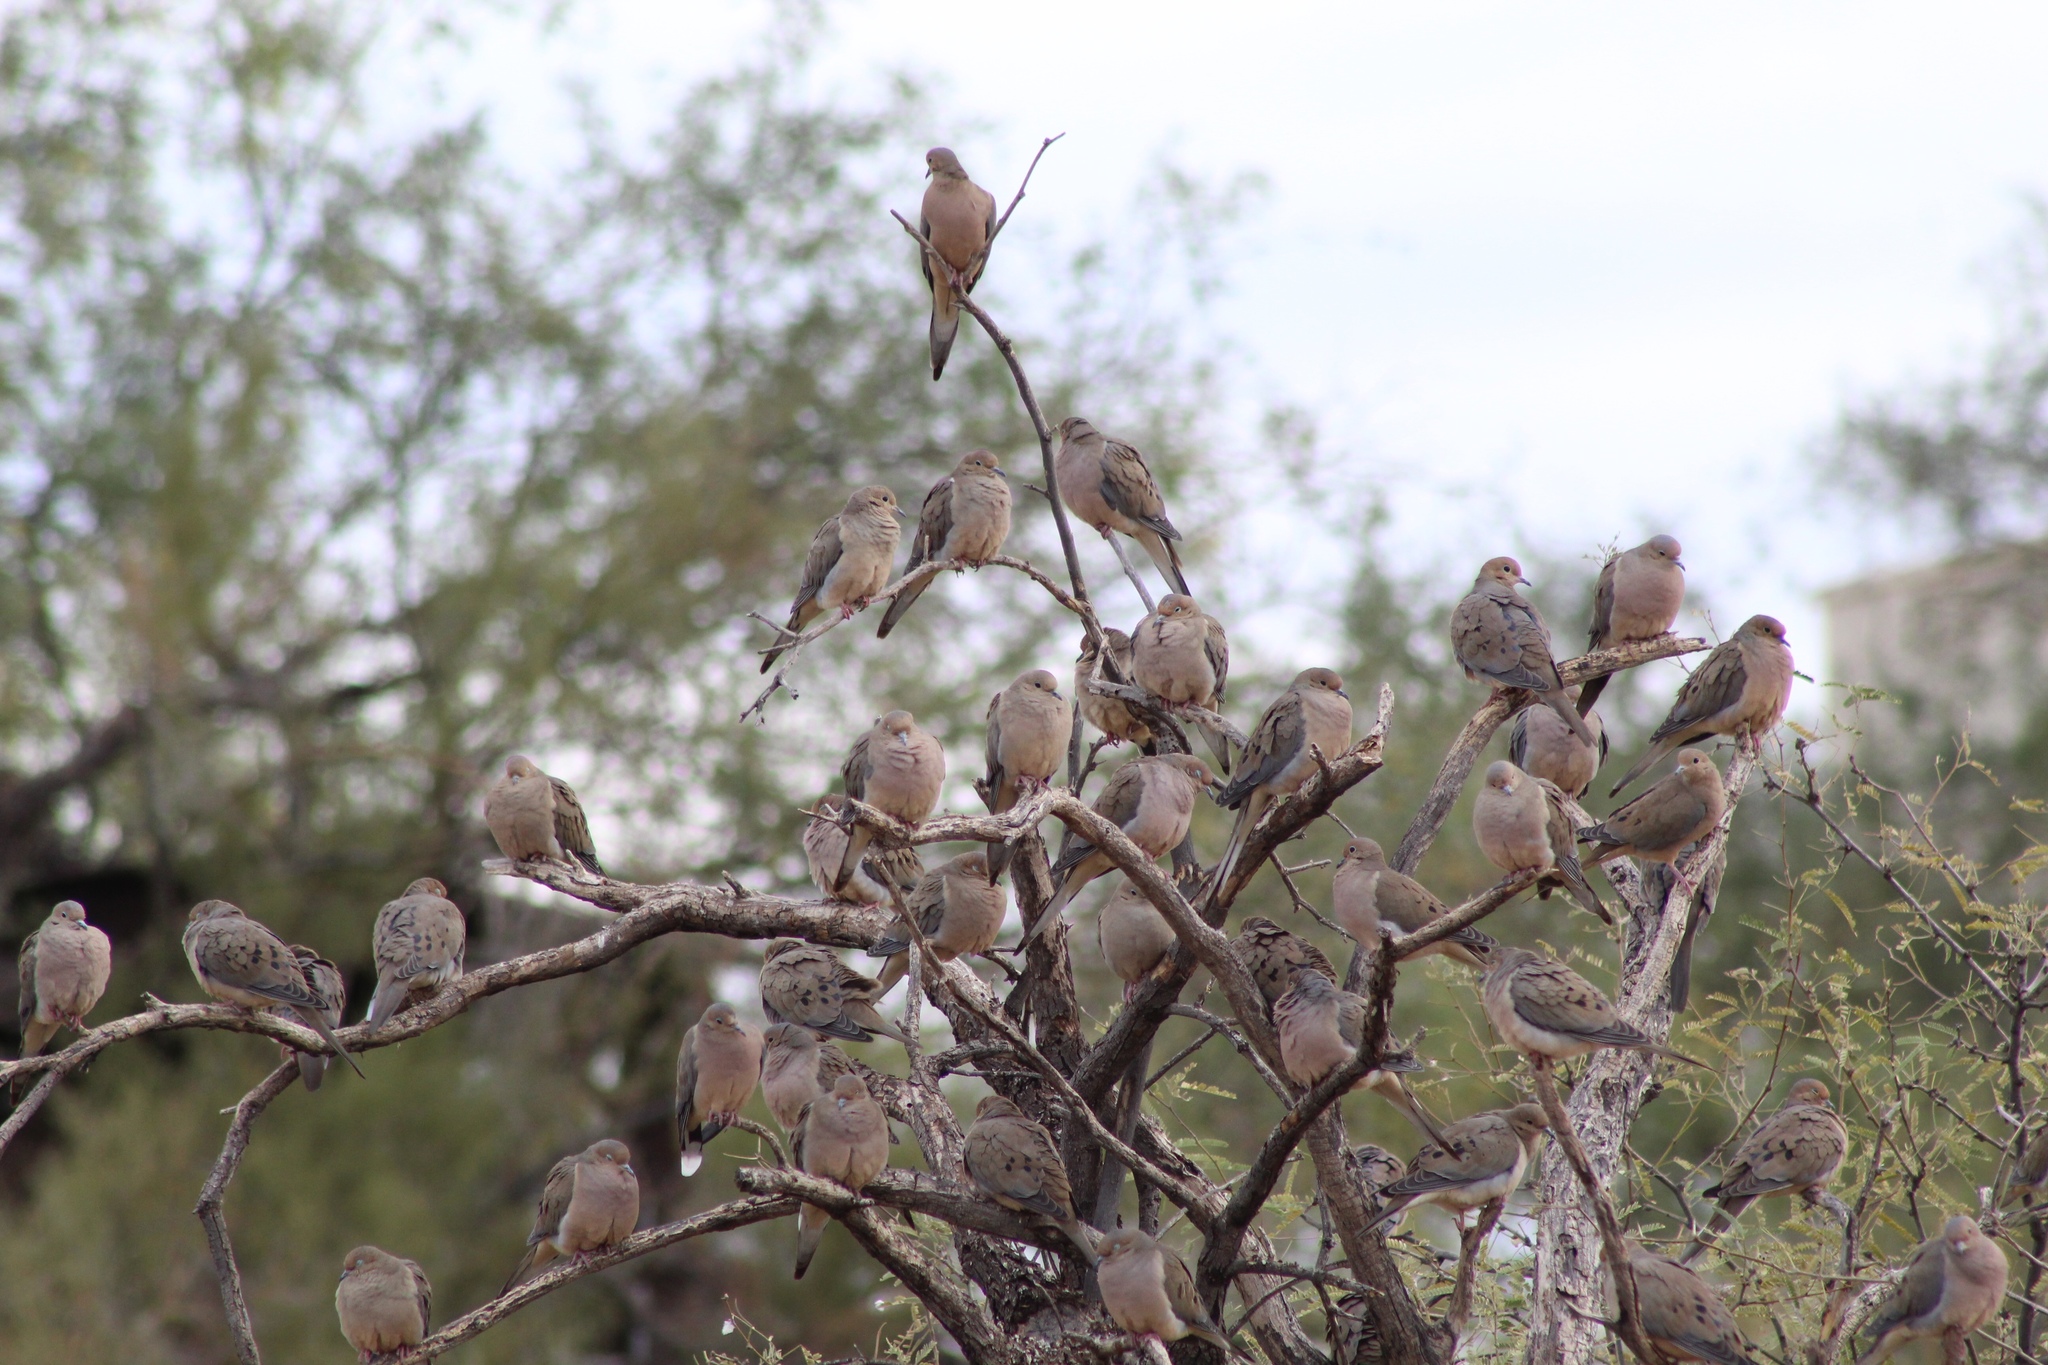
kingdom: Animalia
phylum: Chordata
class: Aves
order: Columbiformes
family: Columbidae
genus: Zenaida
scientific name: Zenaida macroura
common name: Mourning dove
